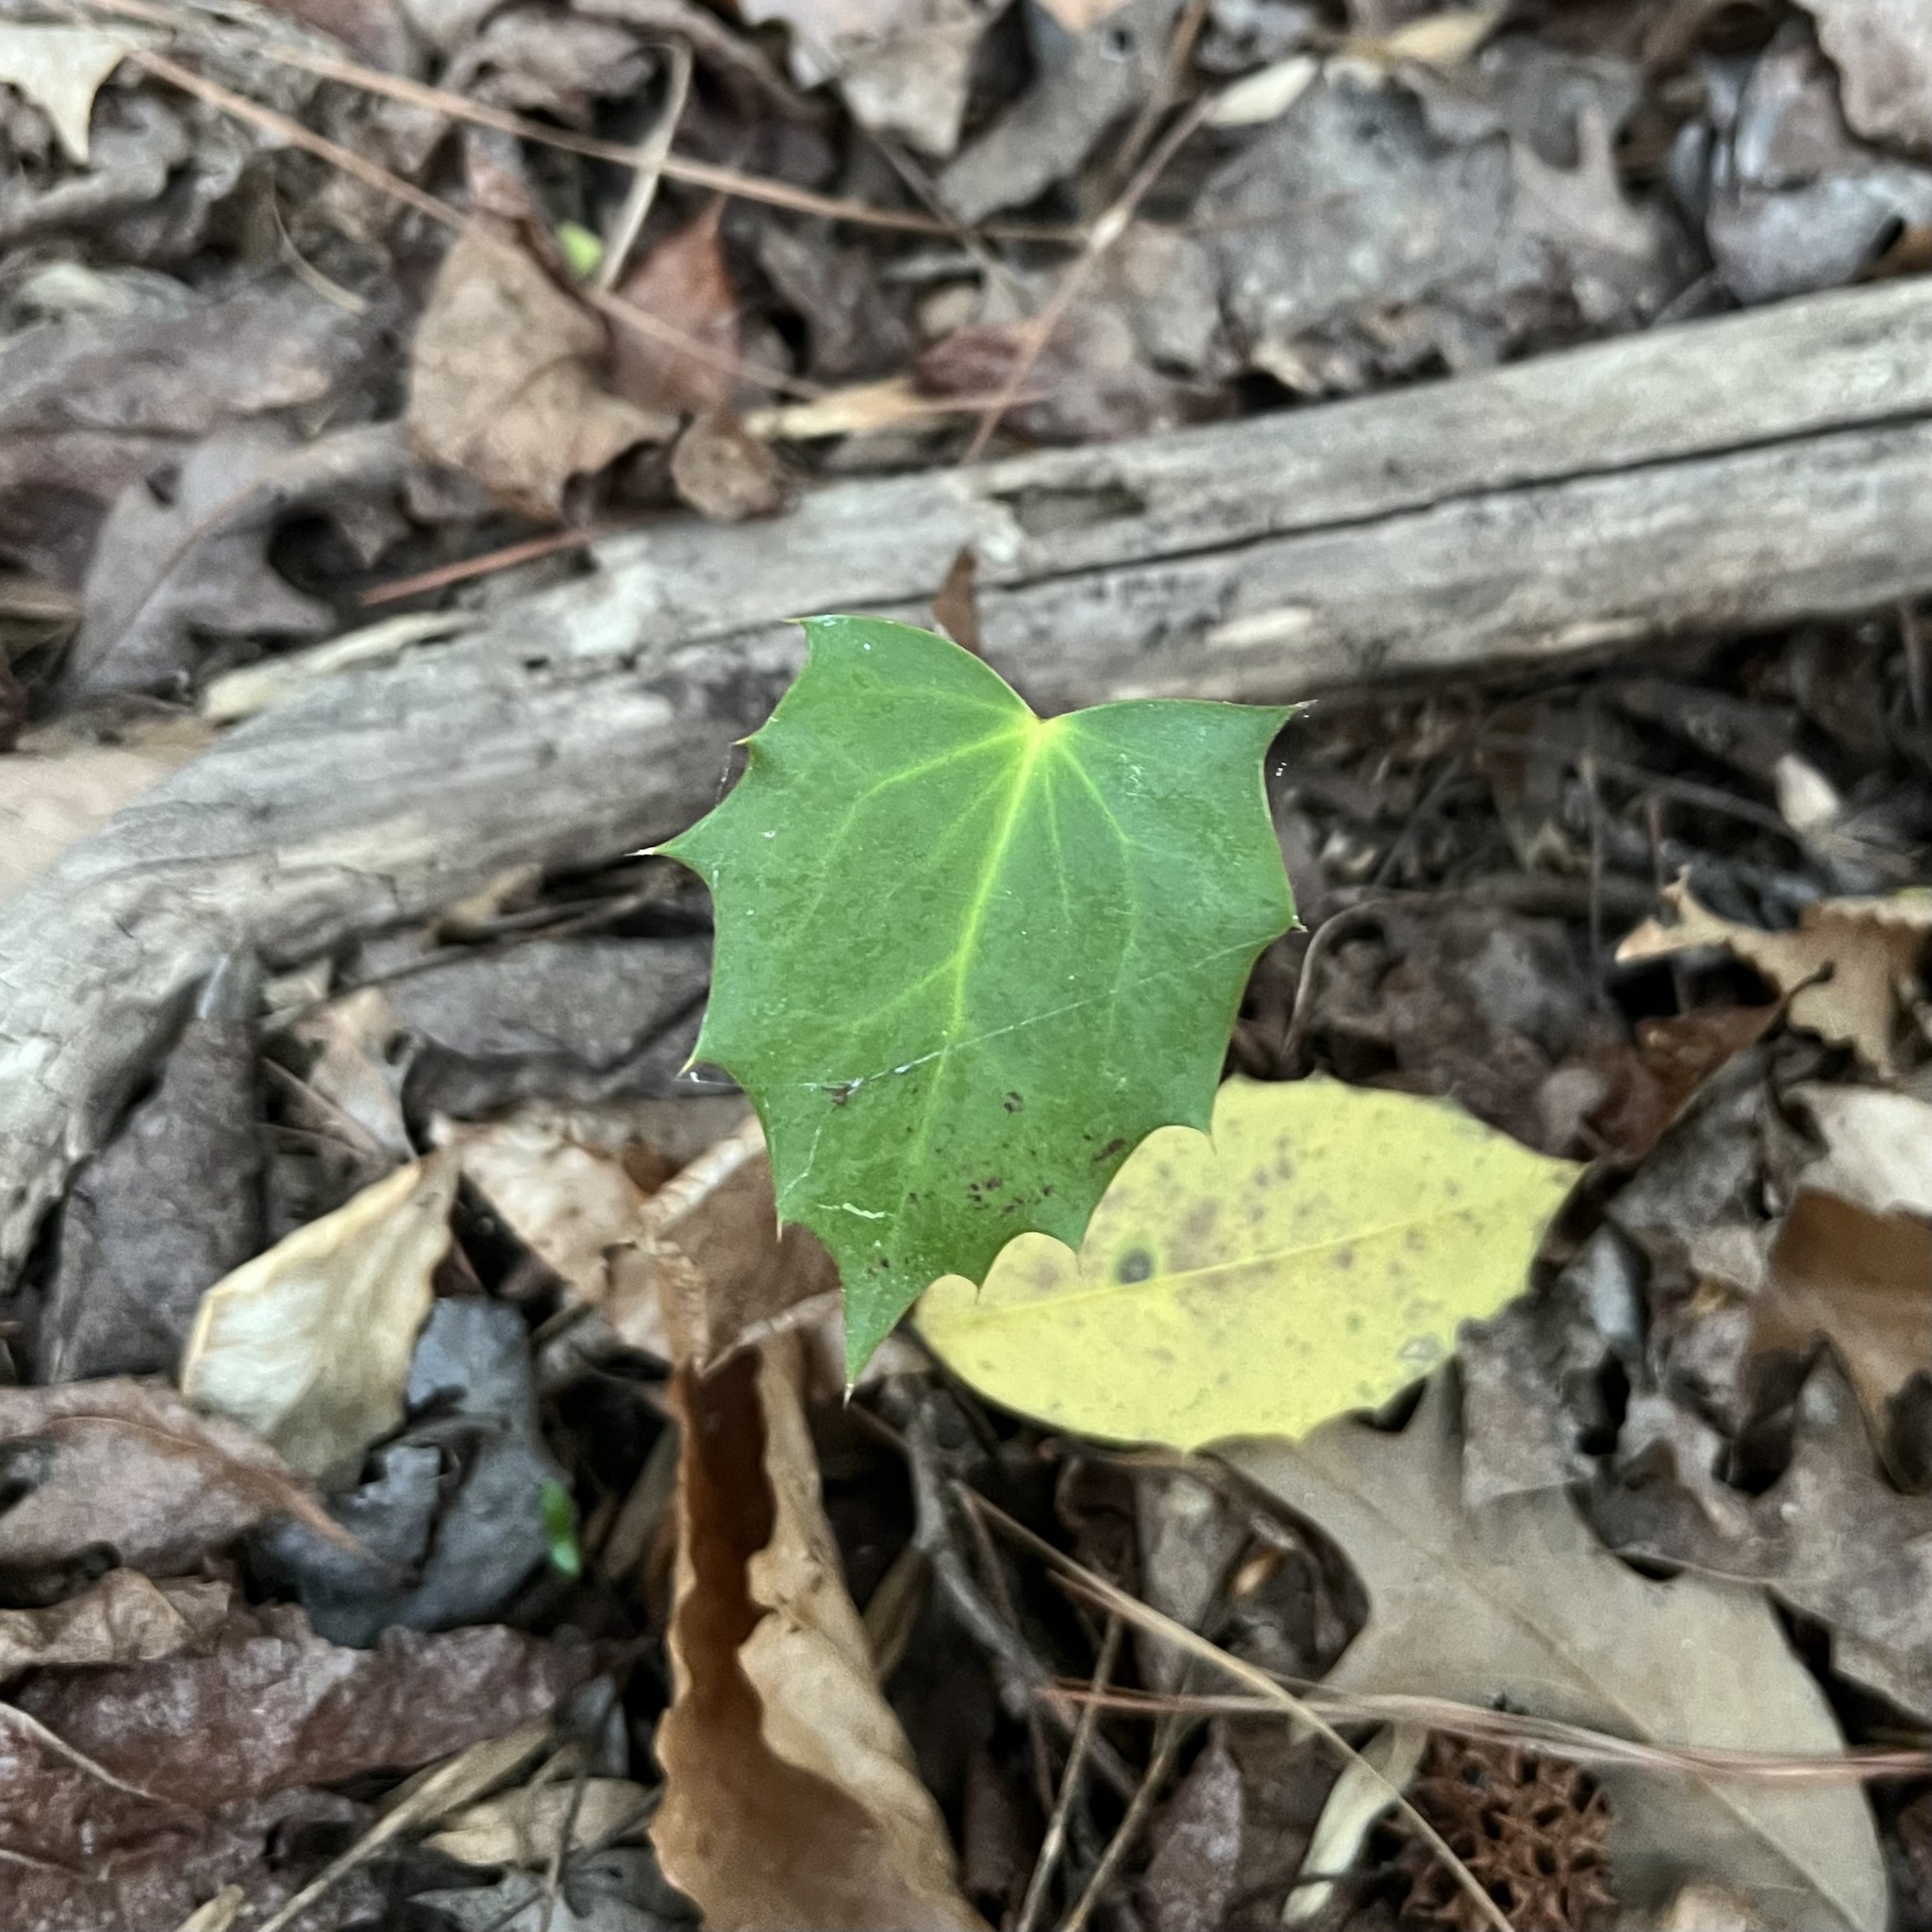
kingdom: Plantae
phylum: Tracheophyta
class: Magnoliopsida
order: Ranunculales
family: Berberidaceae
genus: Mahonia
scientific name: Mahonia bealei
